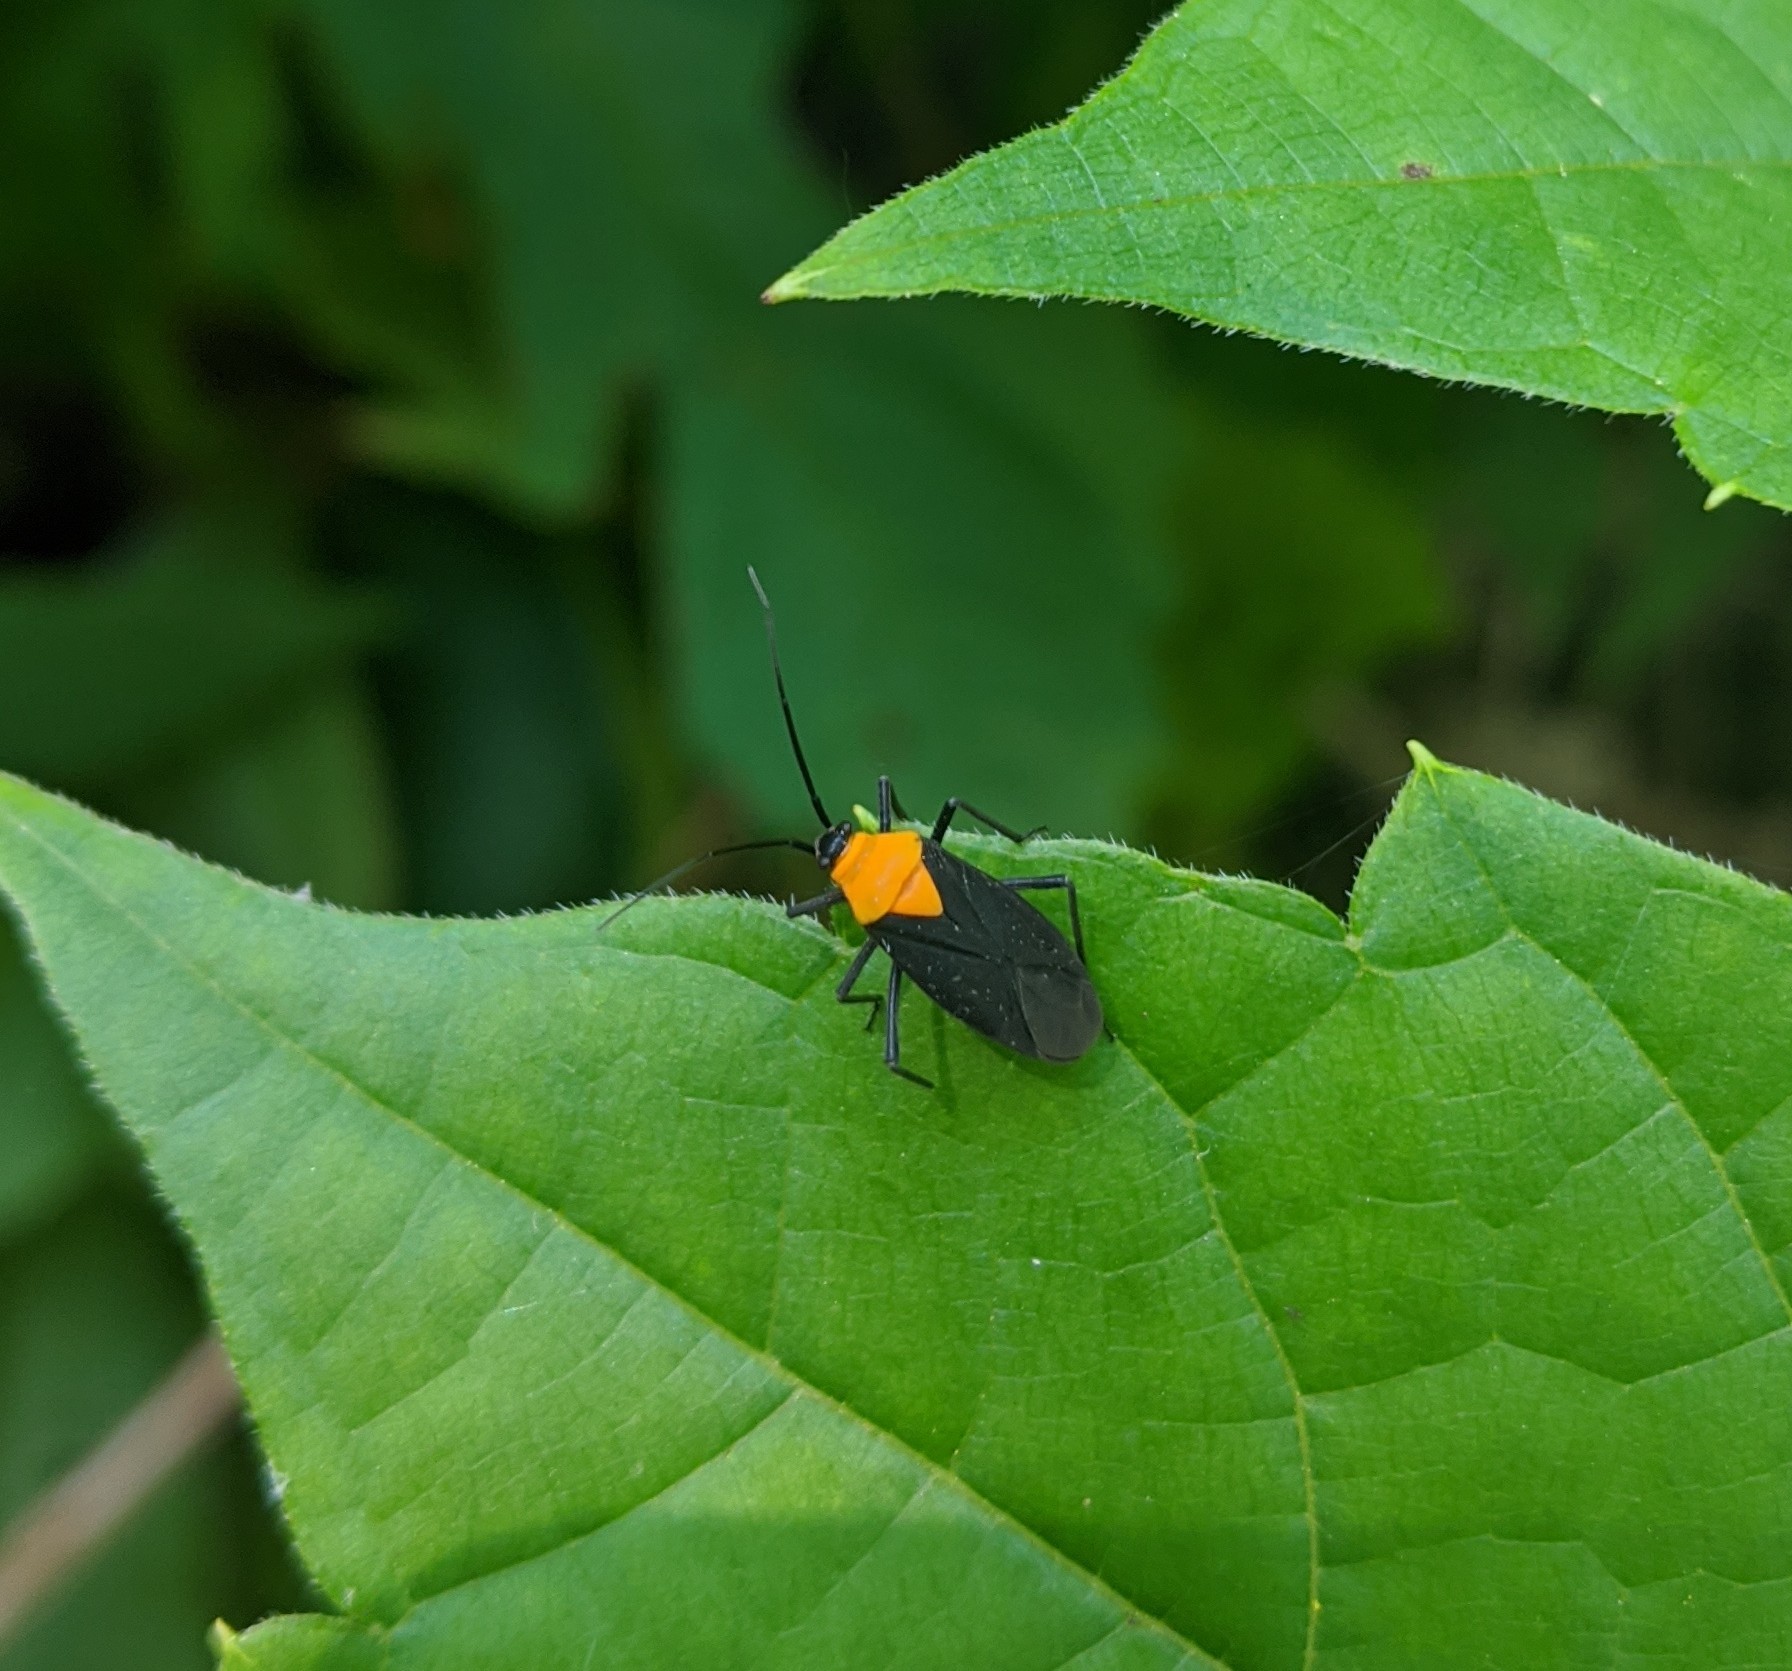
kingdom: Animalia
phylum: Arthropoda
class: Insecta
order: Hemiptera
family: Miridae
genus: Prepops
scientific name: Prepops insitivus
